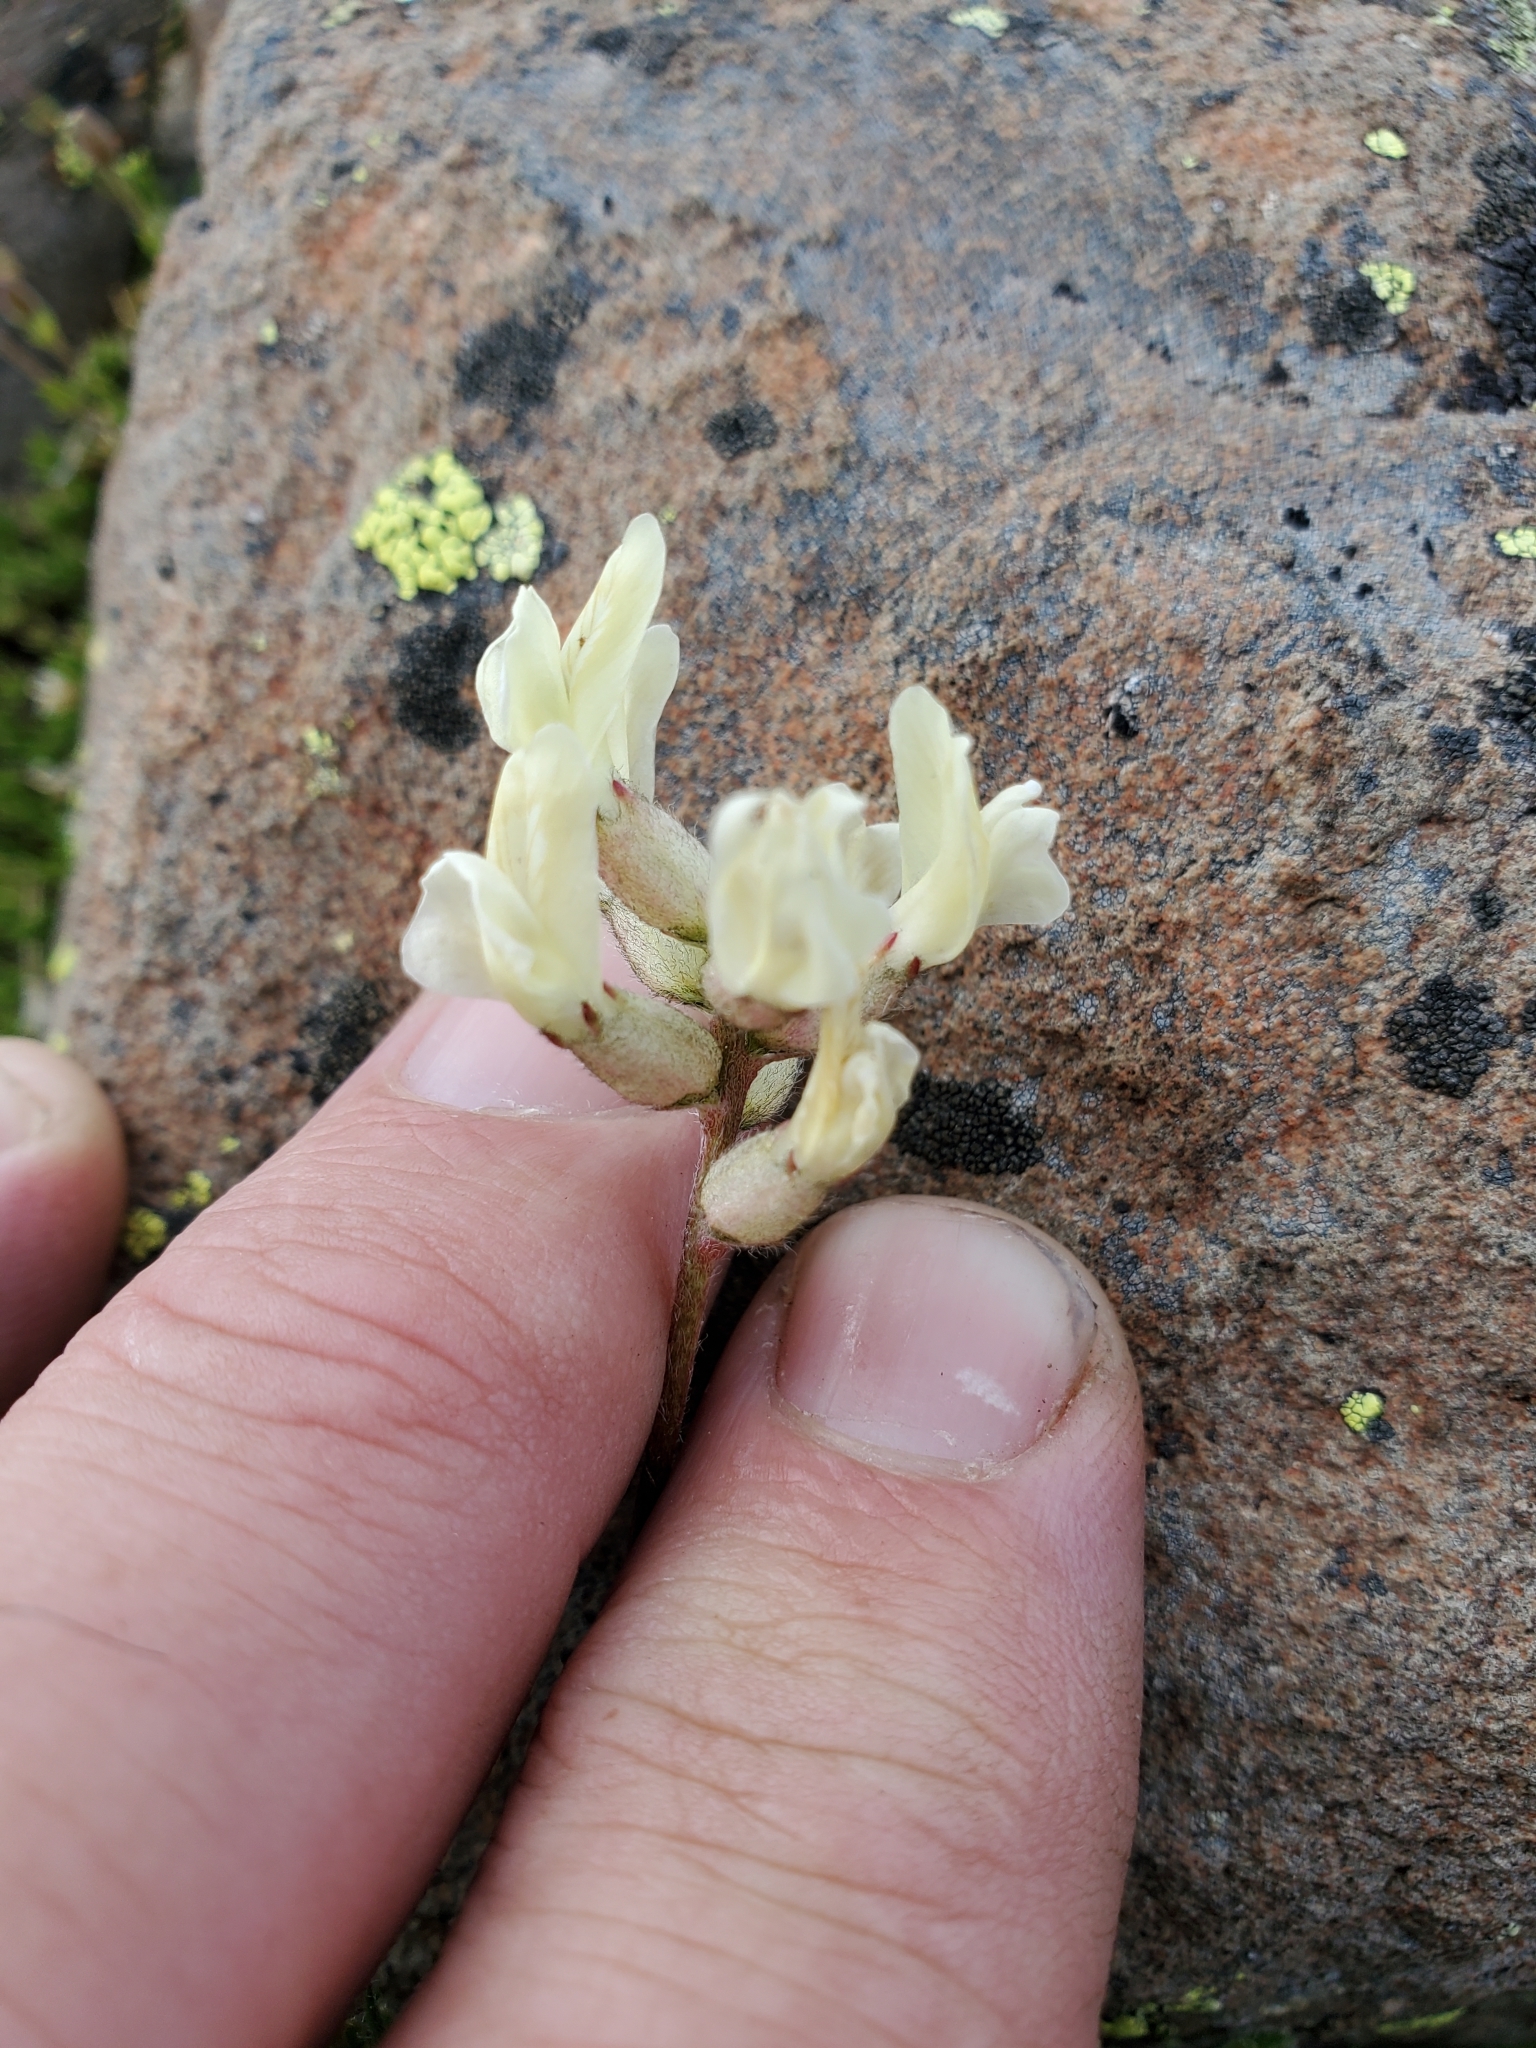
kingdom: Plantae
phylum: Tracheophyta
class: Magnoliopsida
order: Fabales
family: Fabaceae
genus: Oxytropis
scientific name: Oxytropis campestris
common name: Field locoweed
